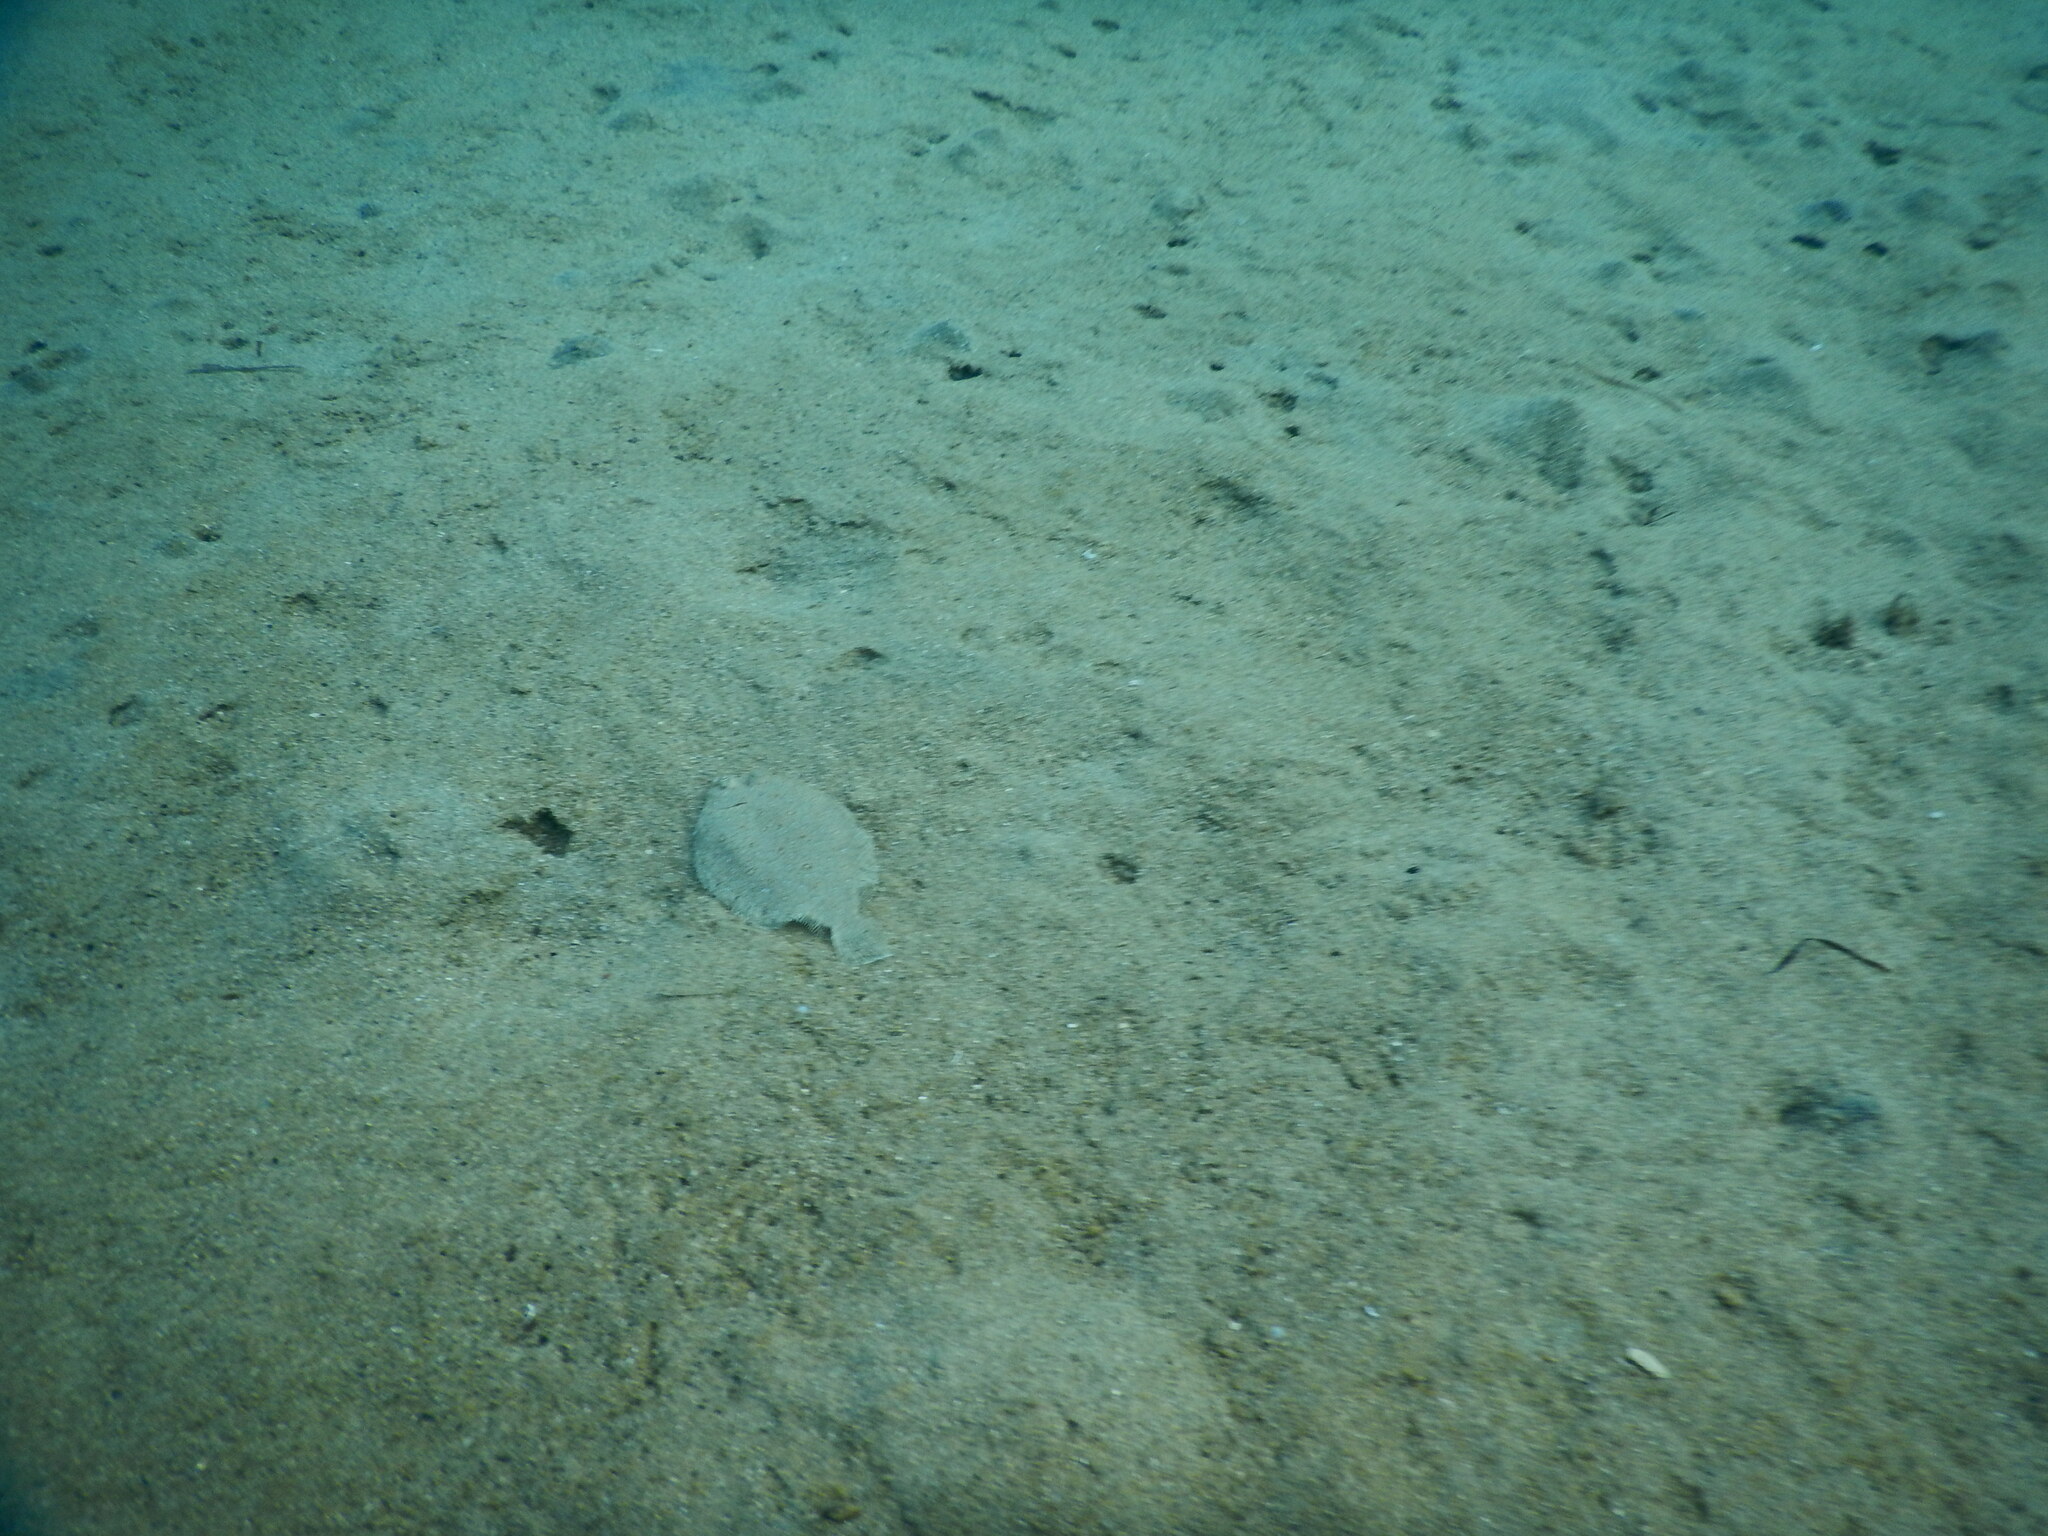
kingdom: Animalia
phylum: Chordata
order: Pleuronectiformes
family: Bothidae
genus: Bothus
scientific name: Bothus podas
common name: Wide-eyed flounder
